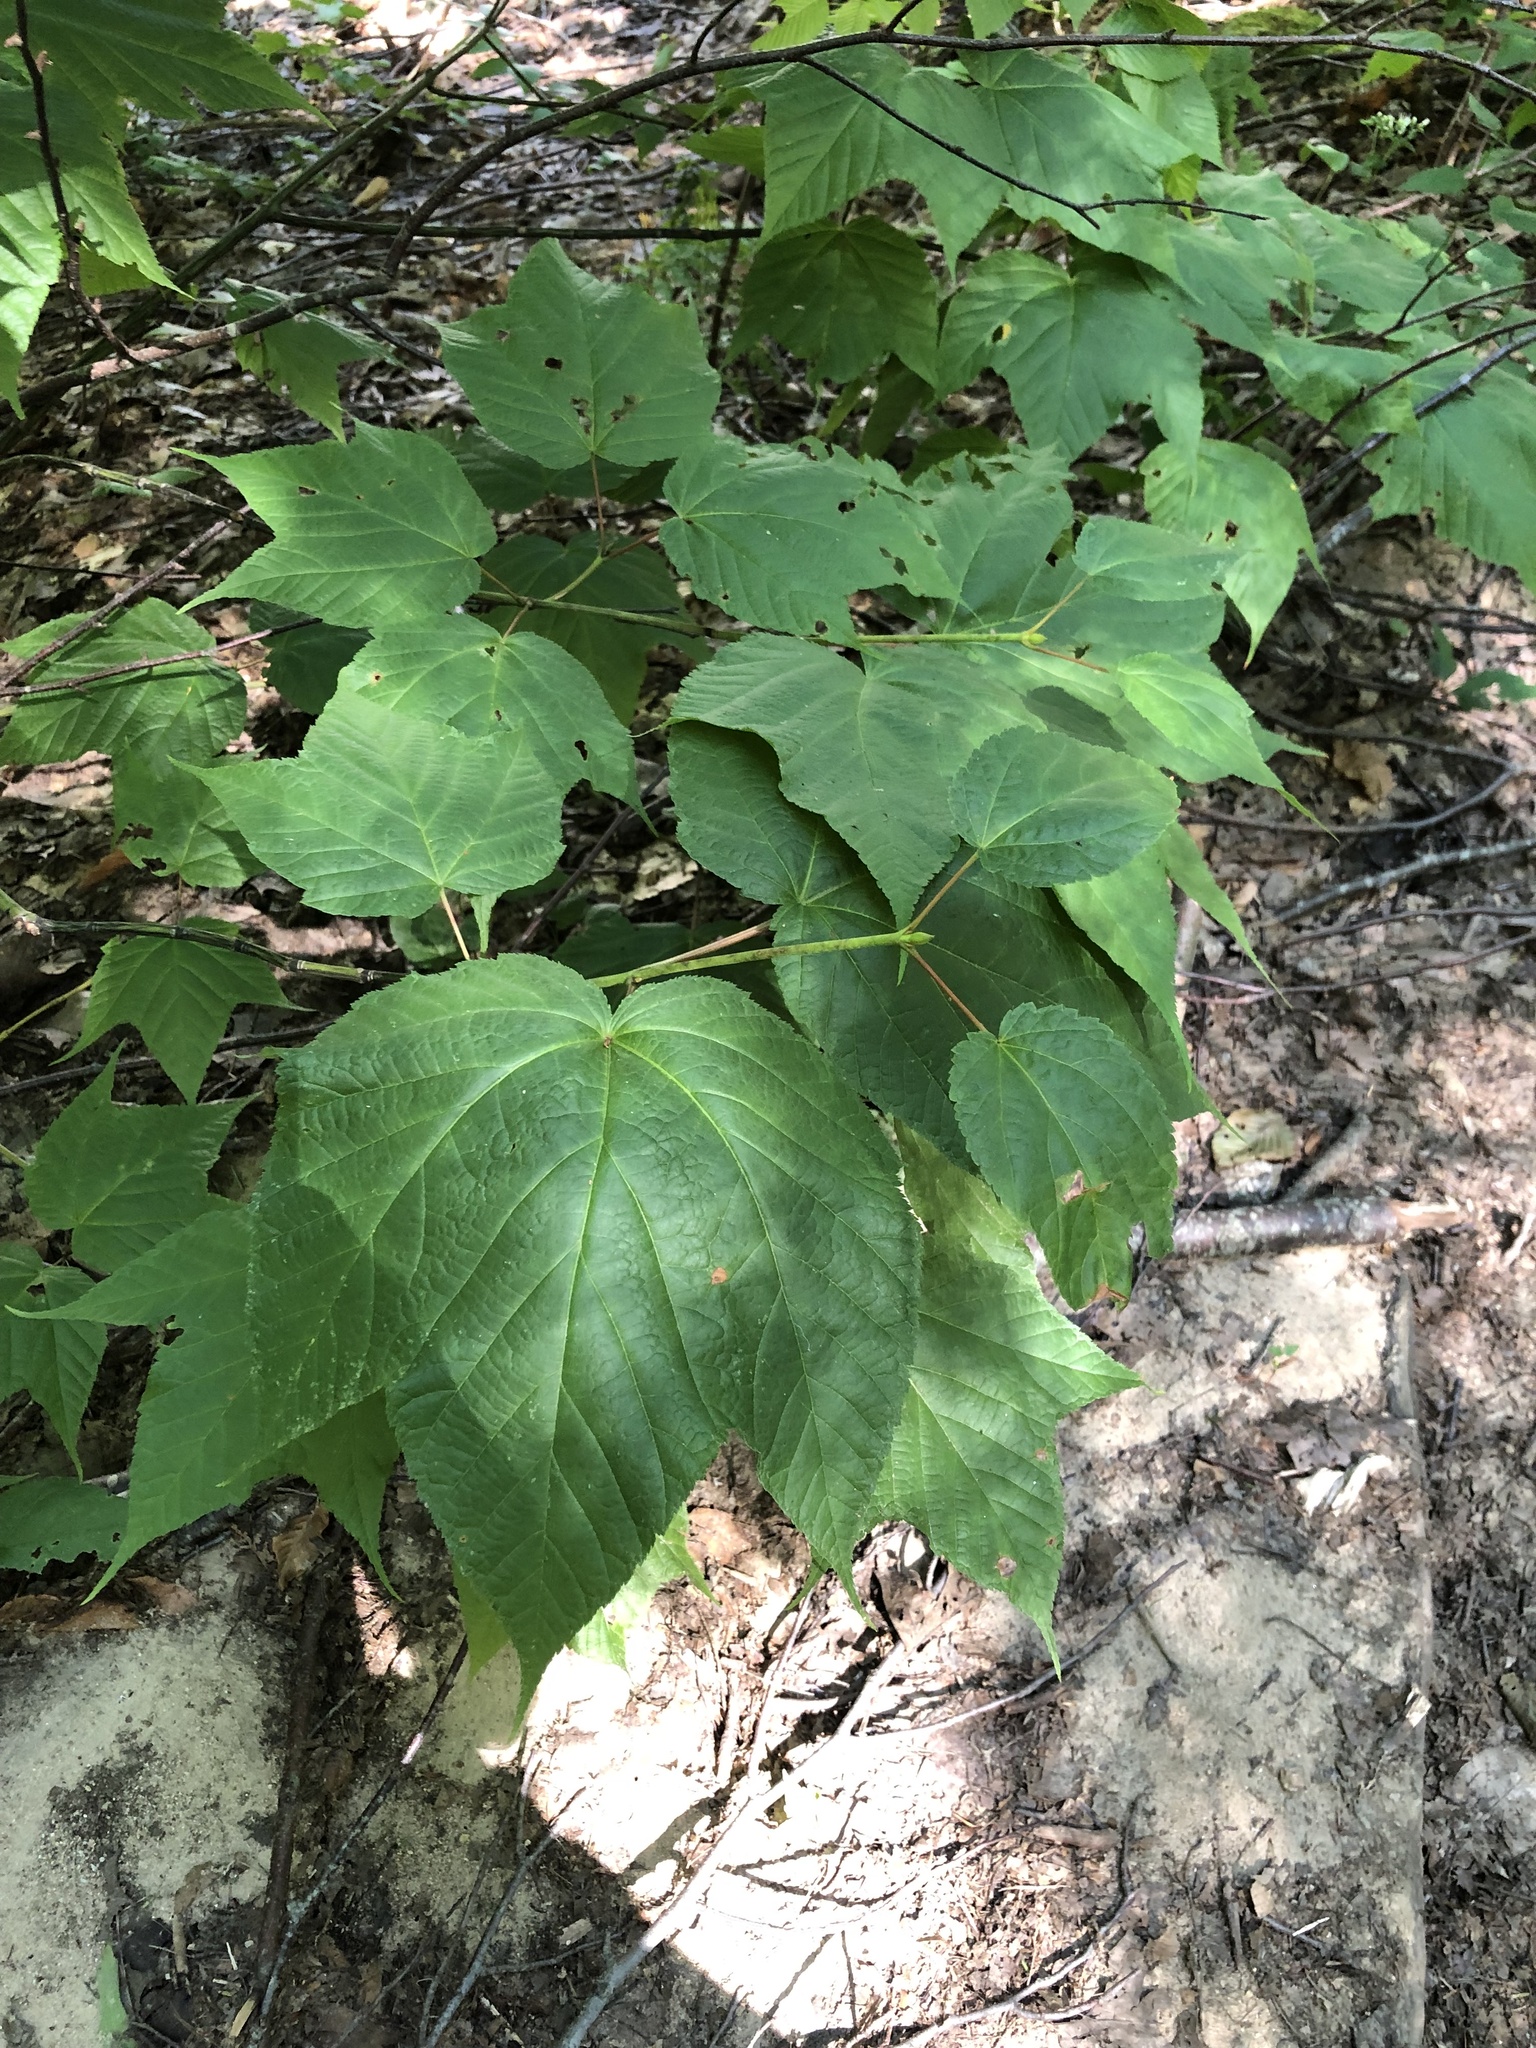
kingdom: Plantae
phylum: Tracheophyta
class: Magnoliopsida
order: Sapindales
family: Sapindaceae
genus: Acer
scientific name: Acer pensylvanicum
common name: Moosewood
